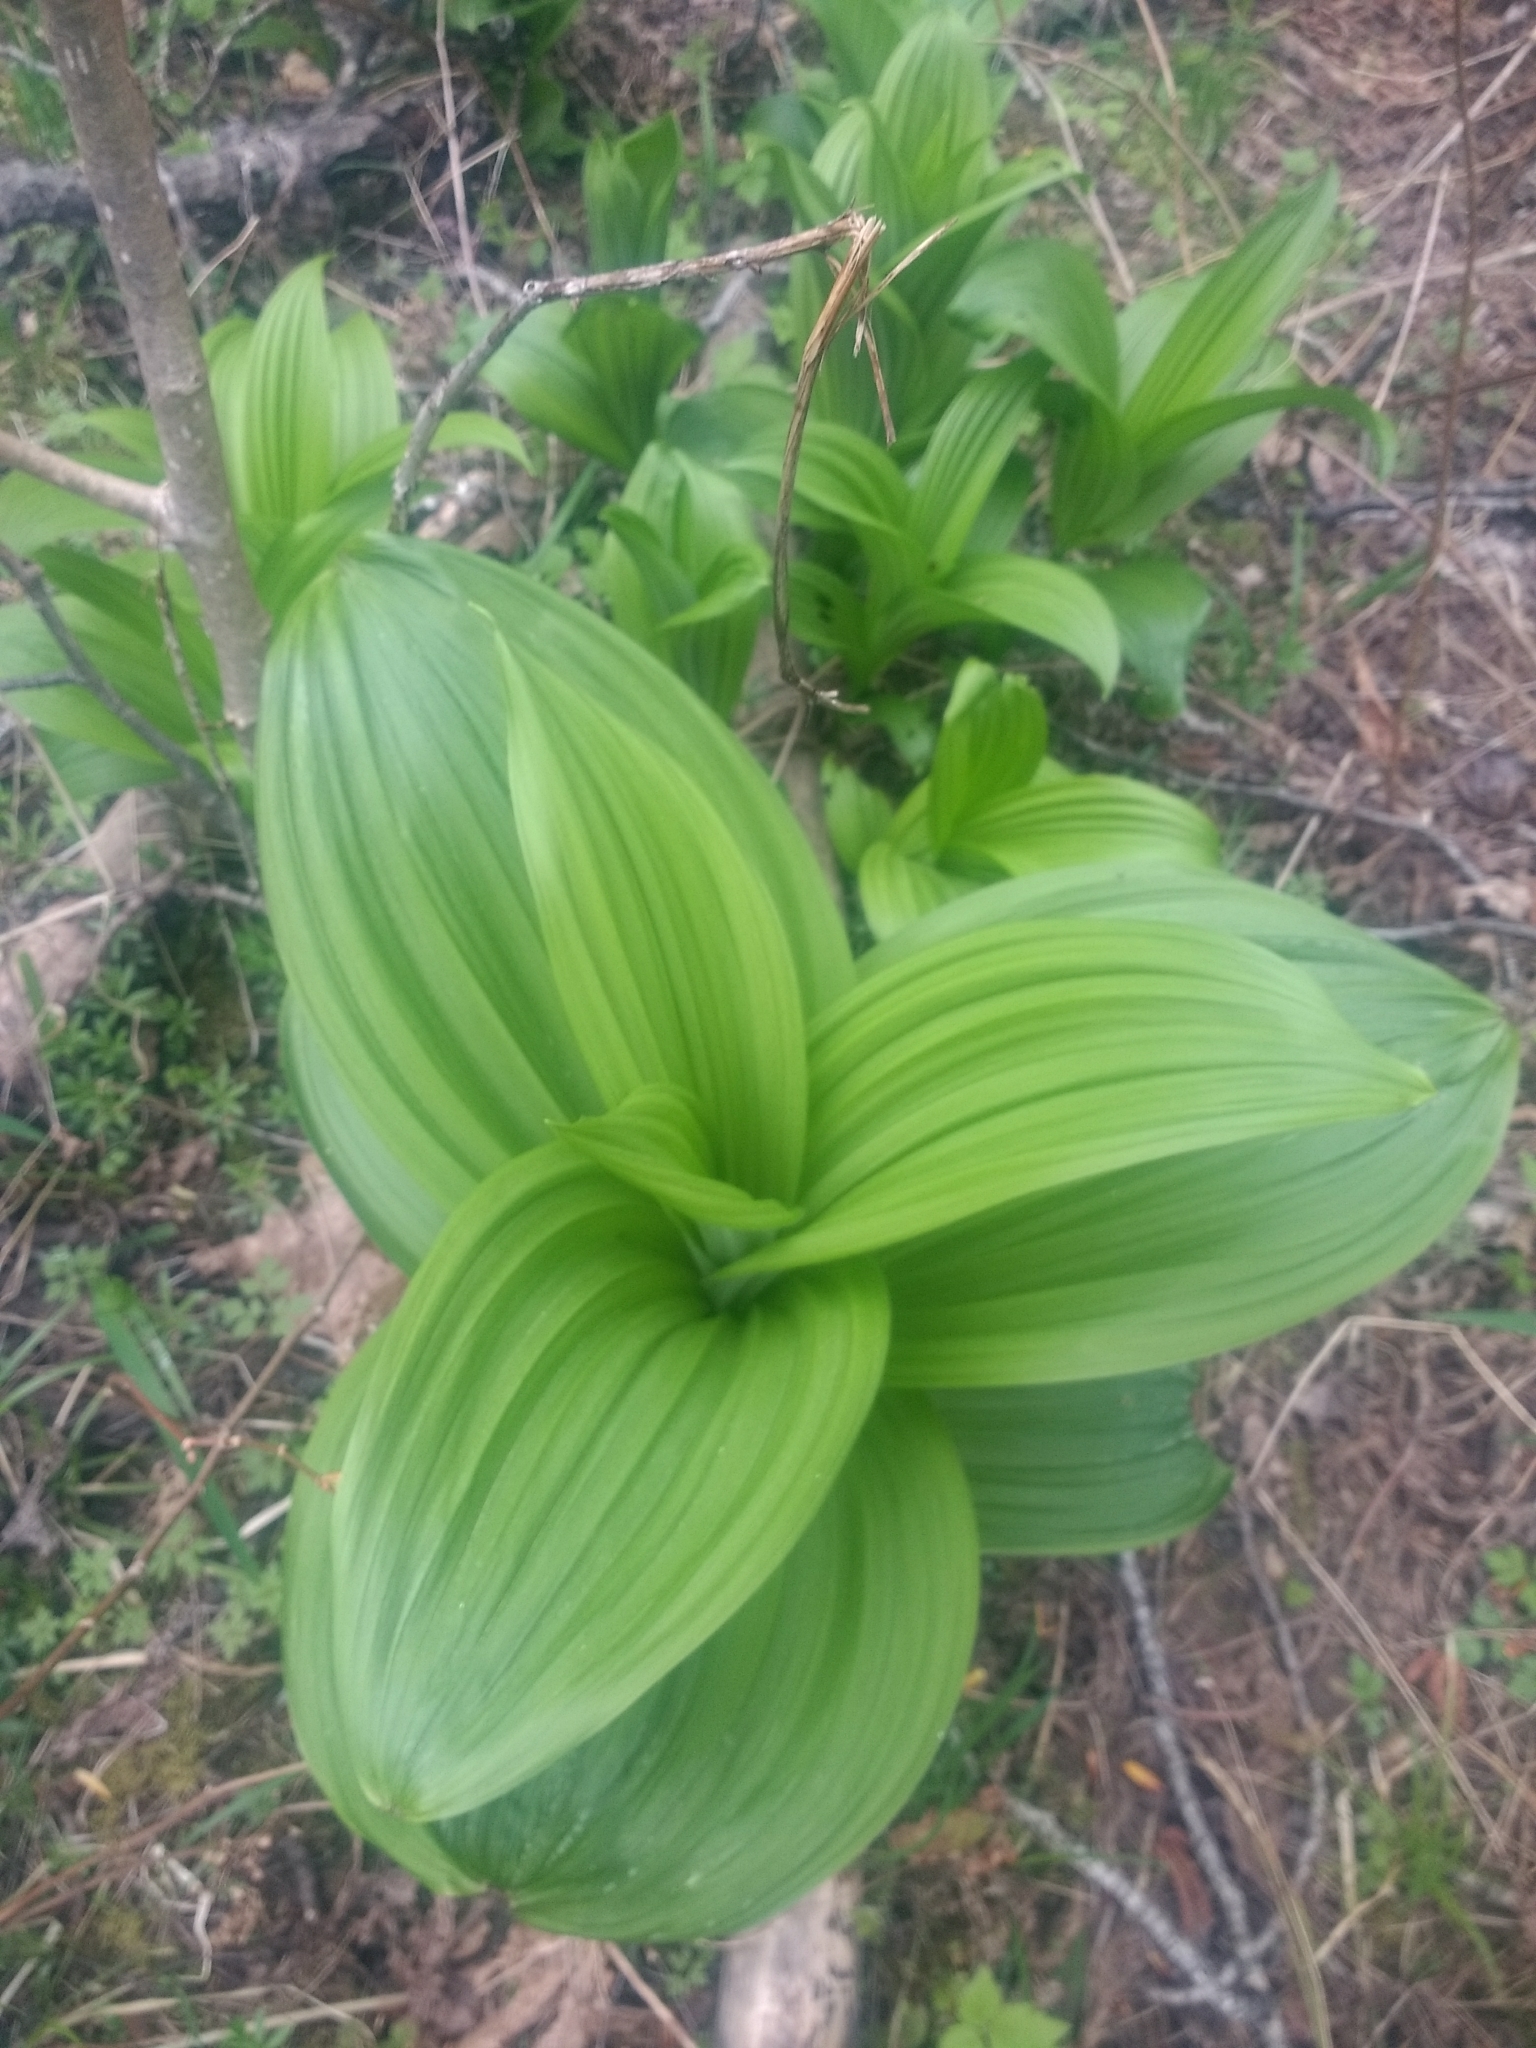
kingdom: Plantae
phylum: Tracheophyta
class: Liliopsida
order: Liliales
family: Melanthiaceae
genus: Veratrum
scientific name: Veratrum viride
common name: American false hellebore
